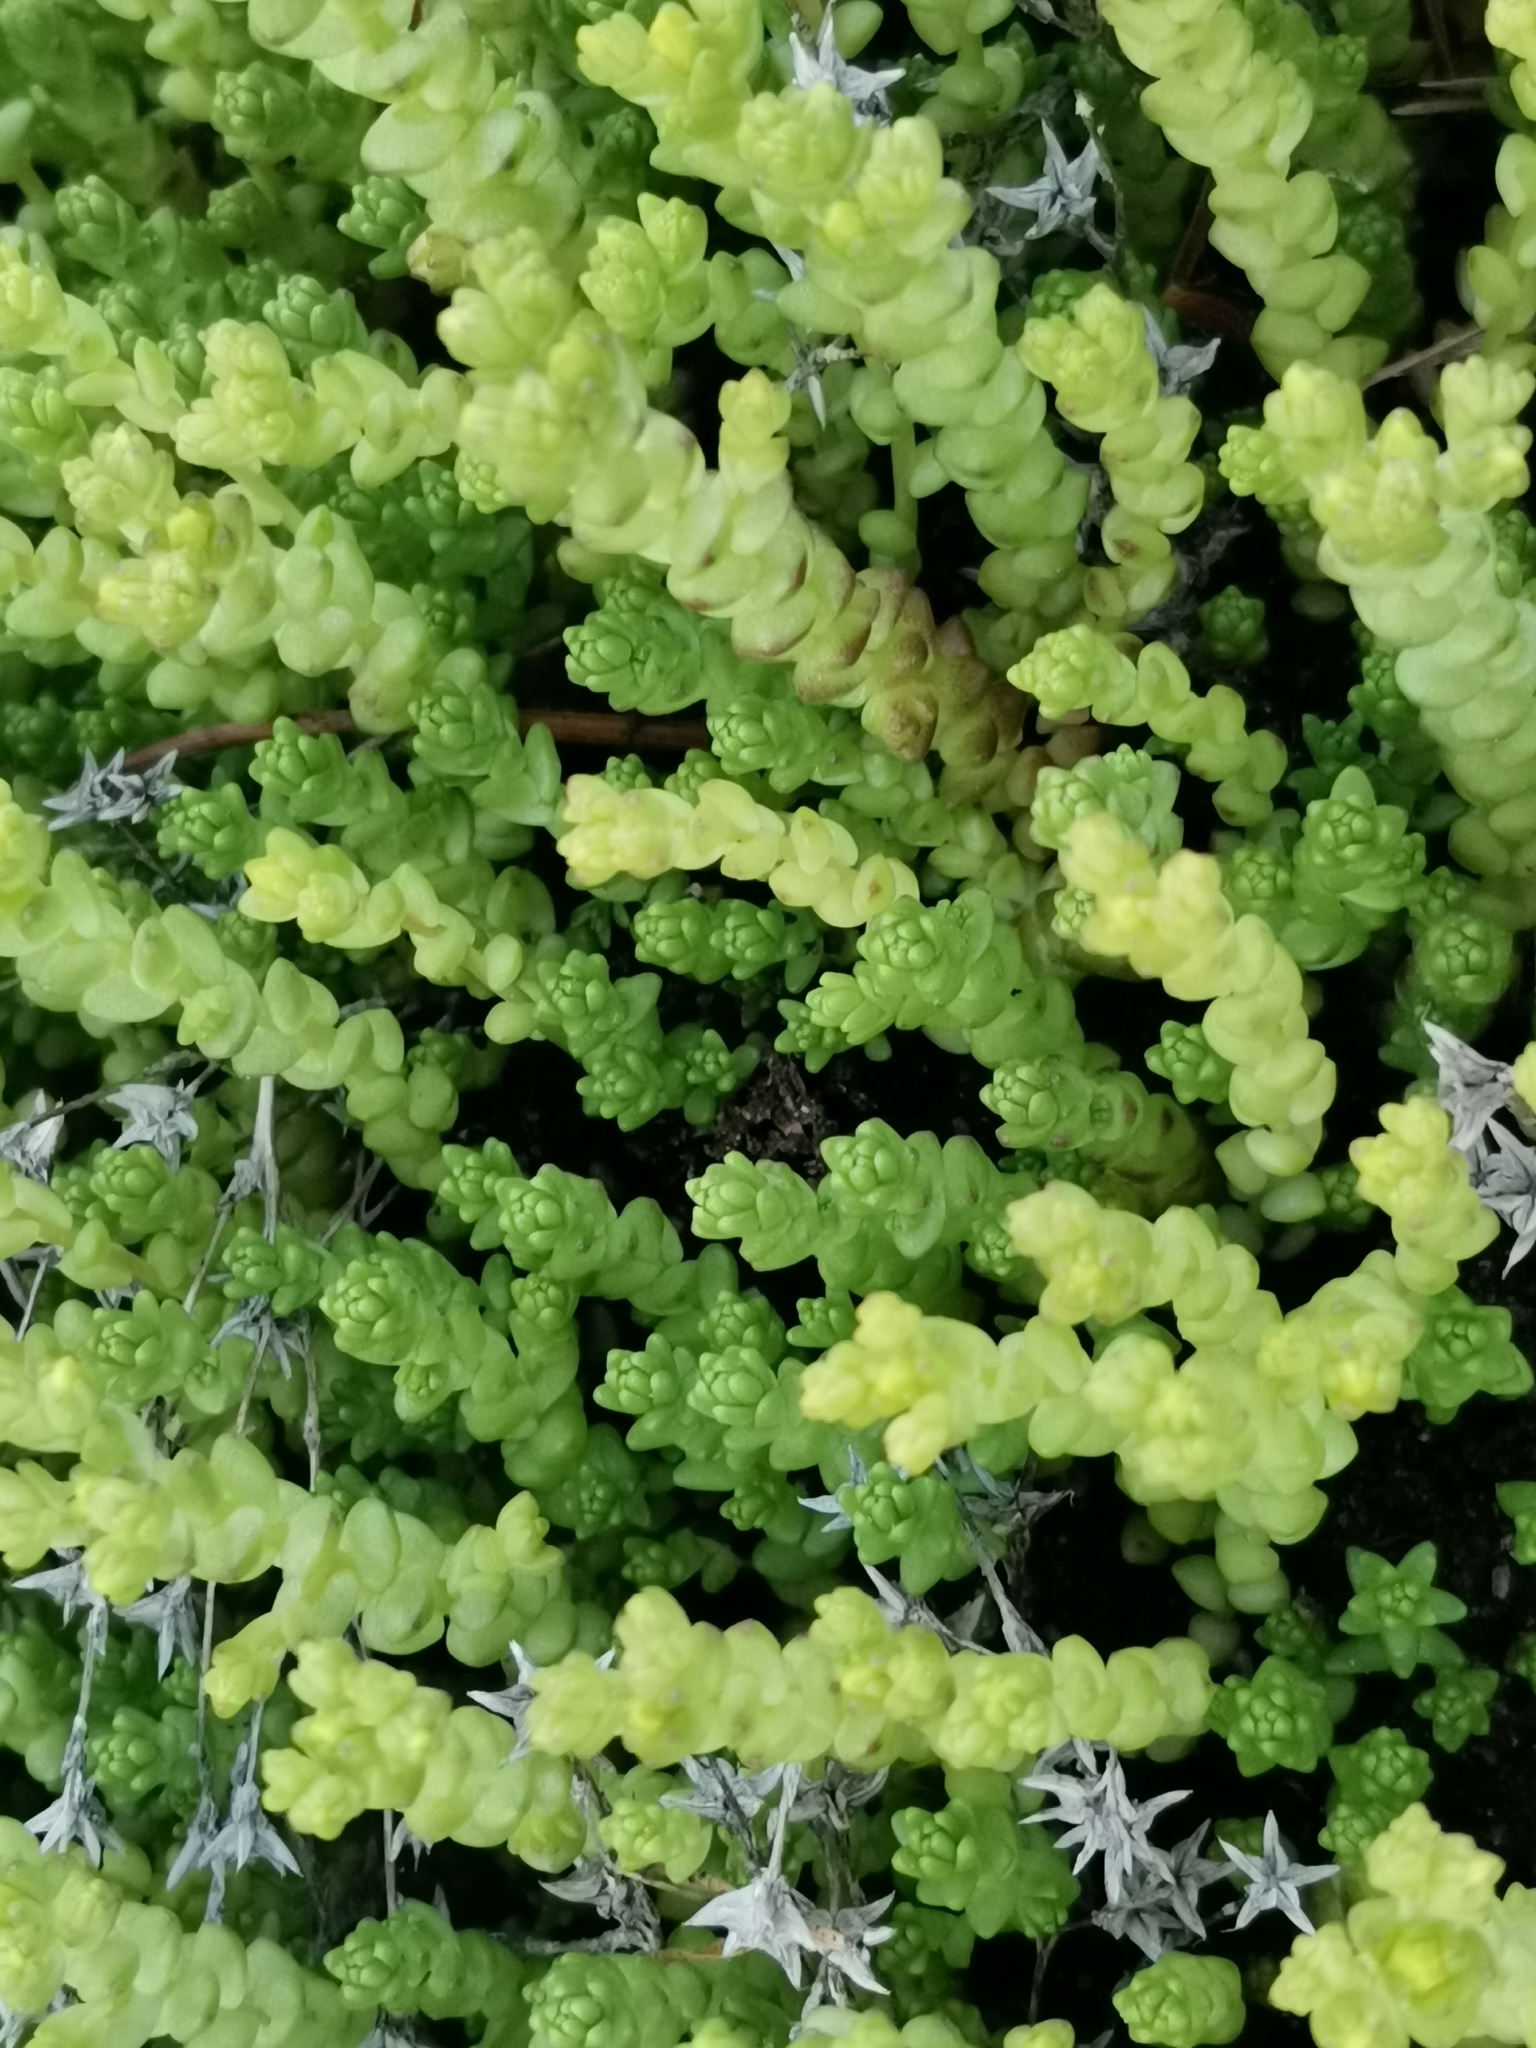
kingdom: Plantae
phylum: Tracheophyta
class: Magnoliopsida
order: Saxifragales
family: Crassulaceae
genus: Sedum
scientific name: Sedum acre
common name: Biting stonecrop
